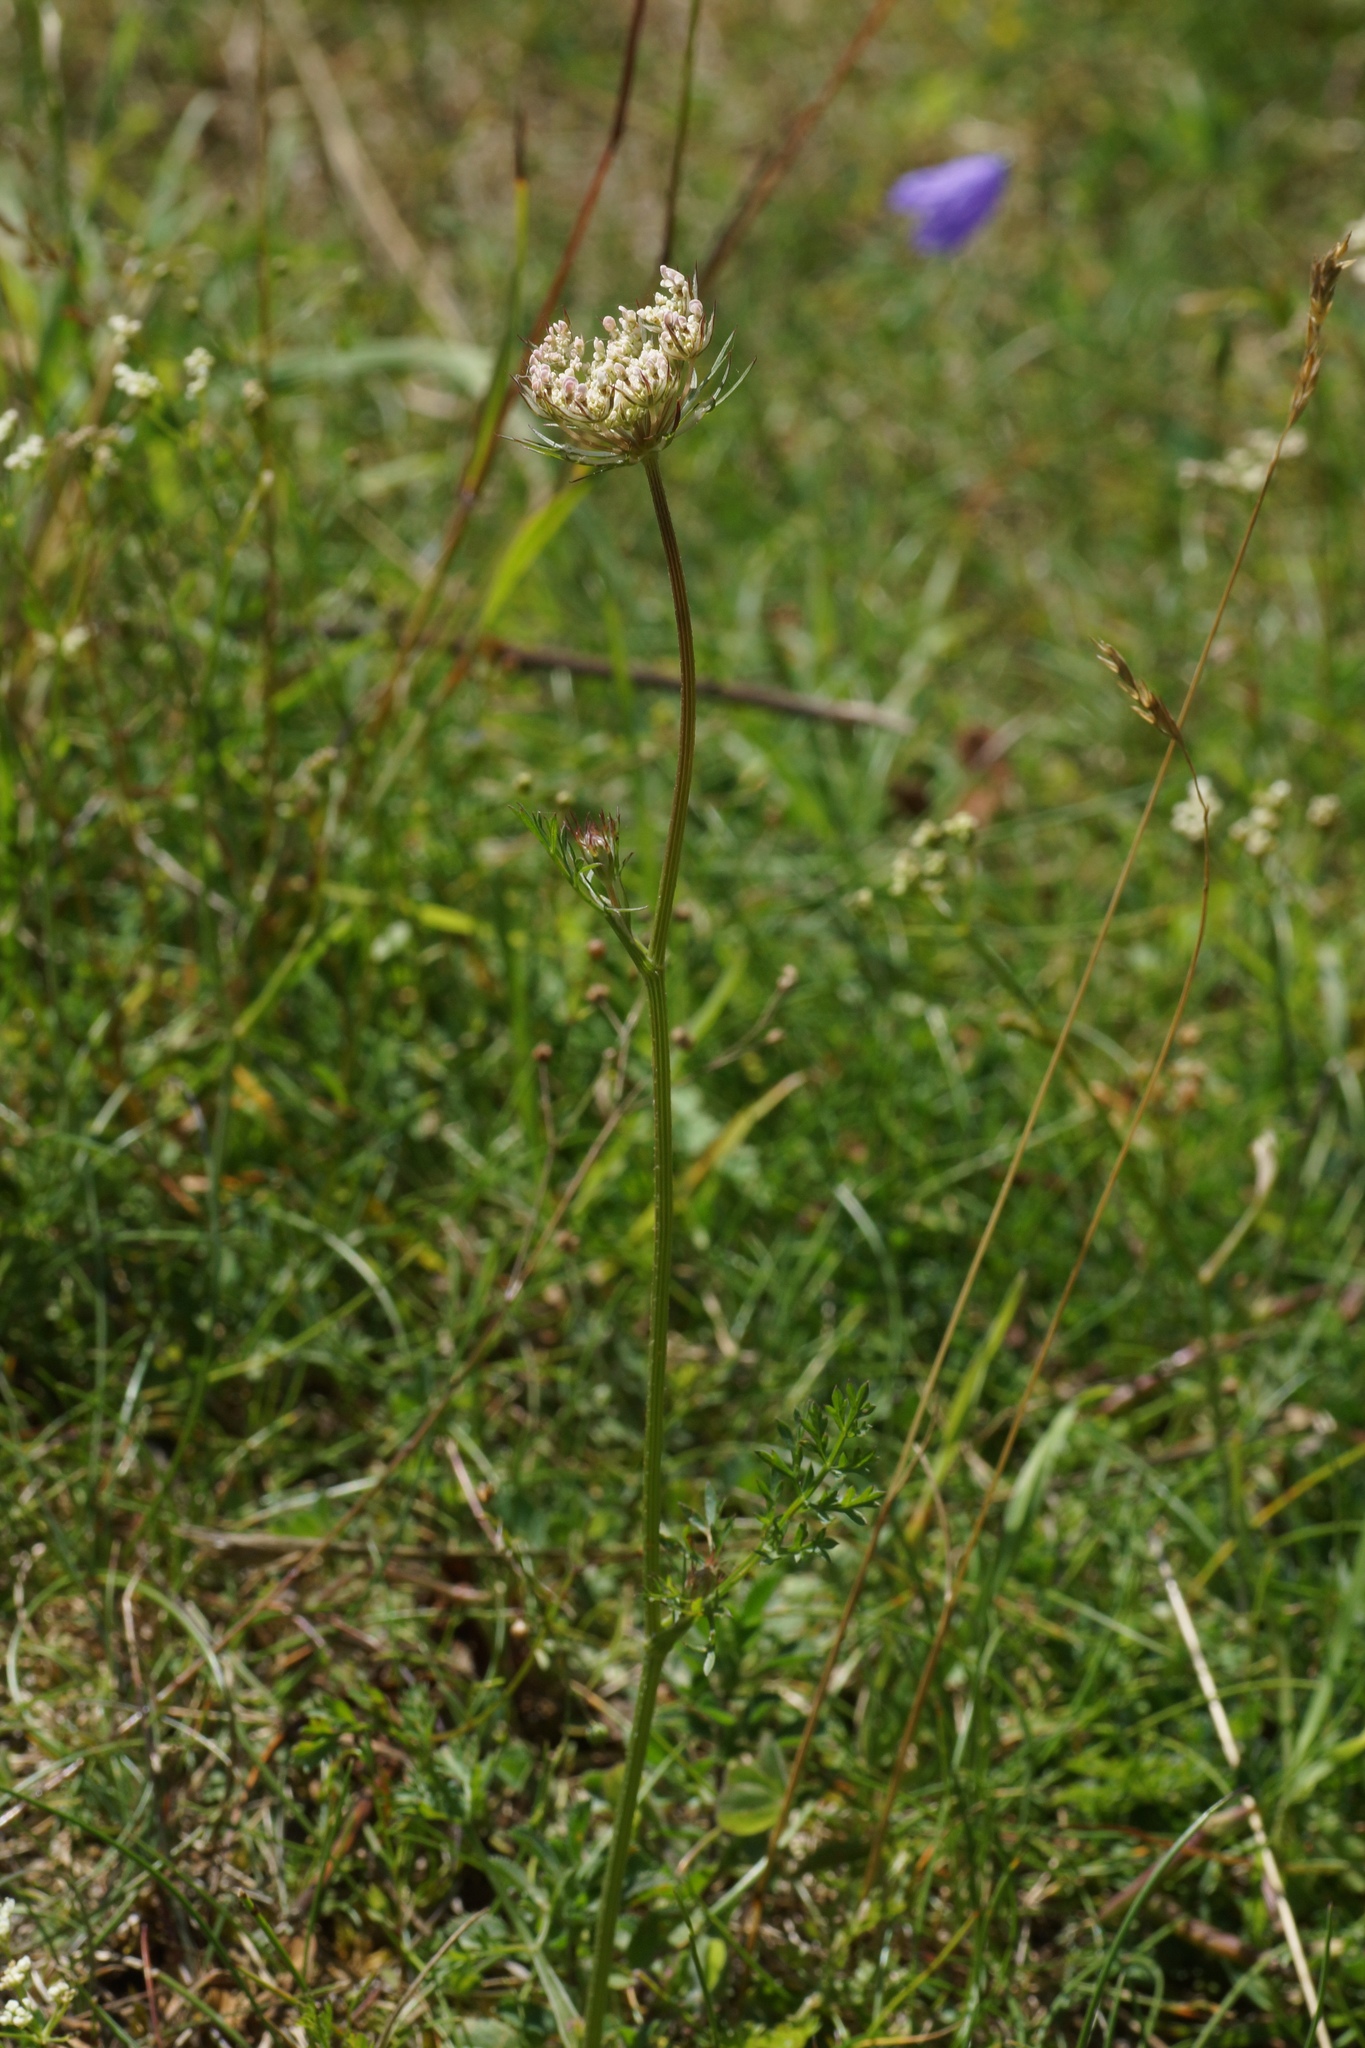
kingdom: Plantae
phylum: Tracheophyta
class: Magnoliopsida
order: Apiales
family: Apiaceae
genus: Daucus
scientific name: Daucus carota
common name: Wild carrot
